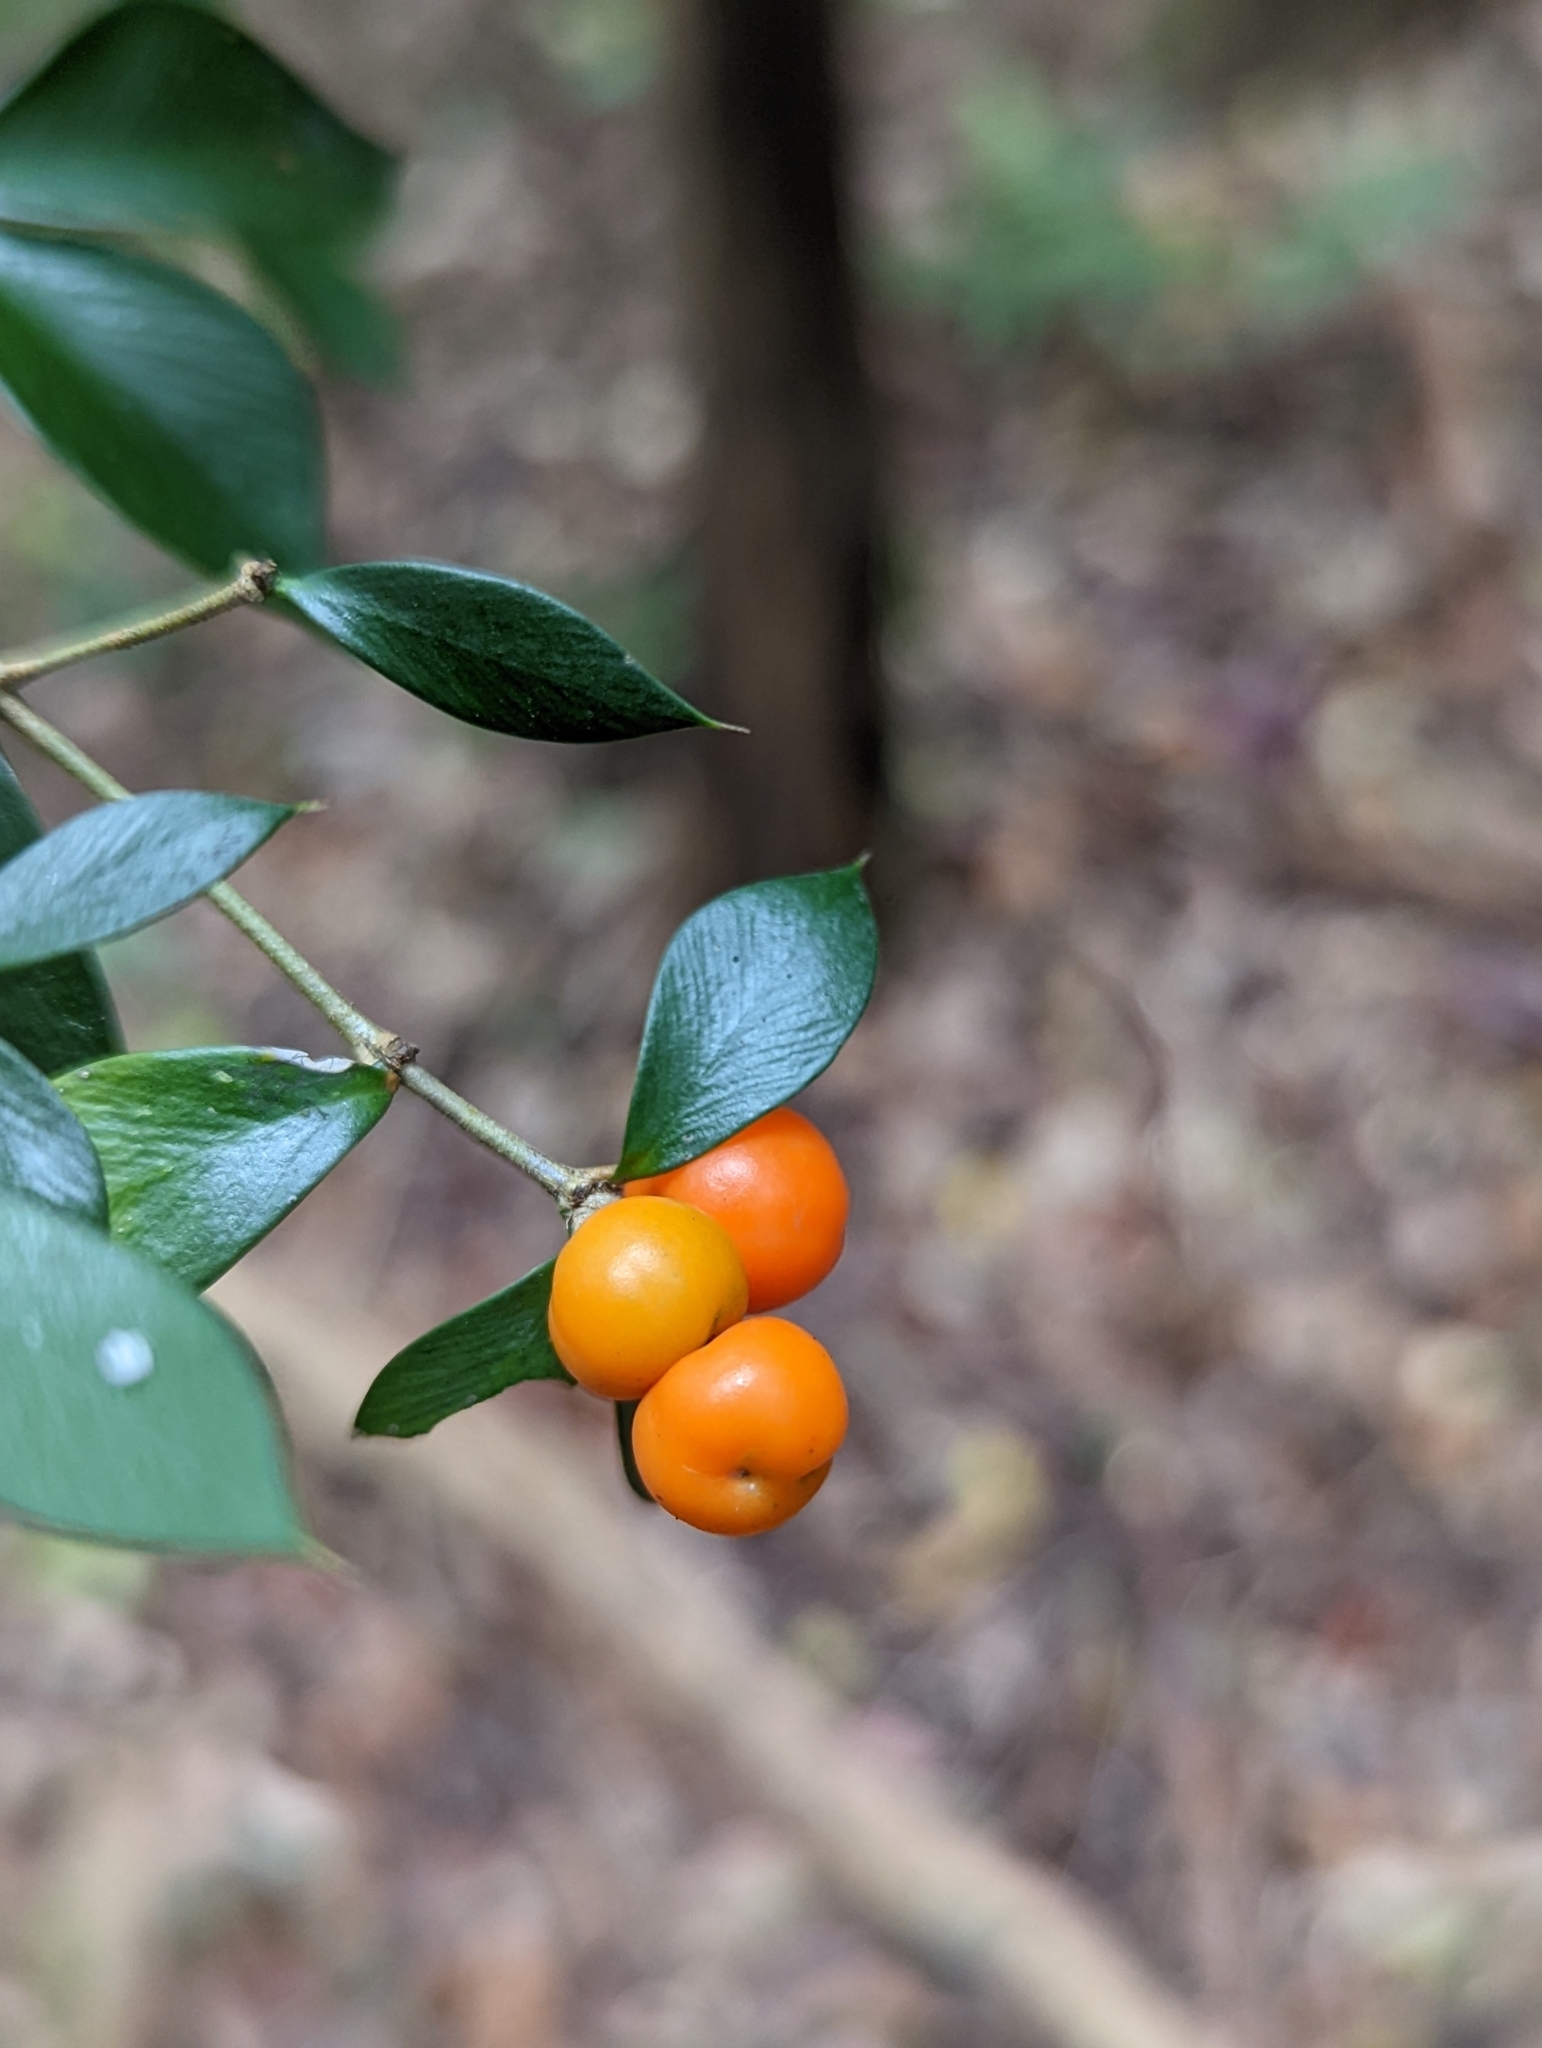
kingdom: Plantae
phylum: Tracheophyta
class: Magnoliopsida
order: Gentianales
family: Apocynaceae
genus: Alyxia
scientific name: Alyxia ruscifolia
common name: Chainfruit
